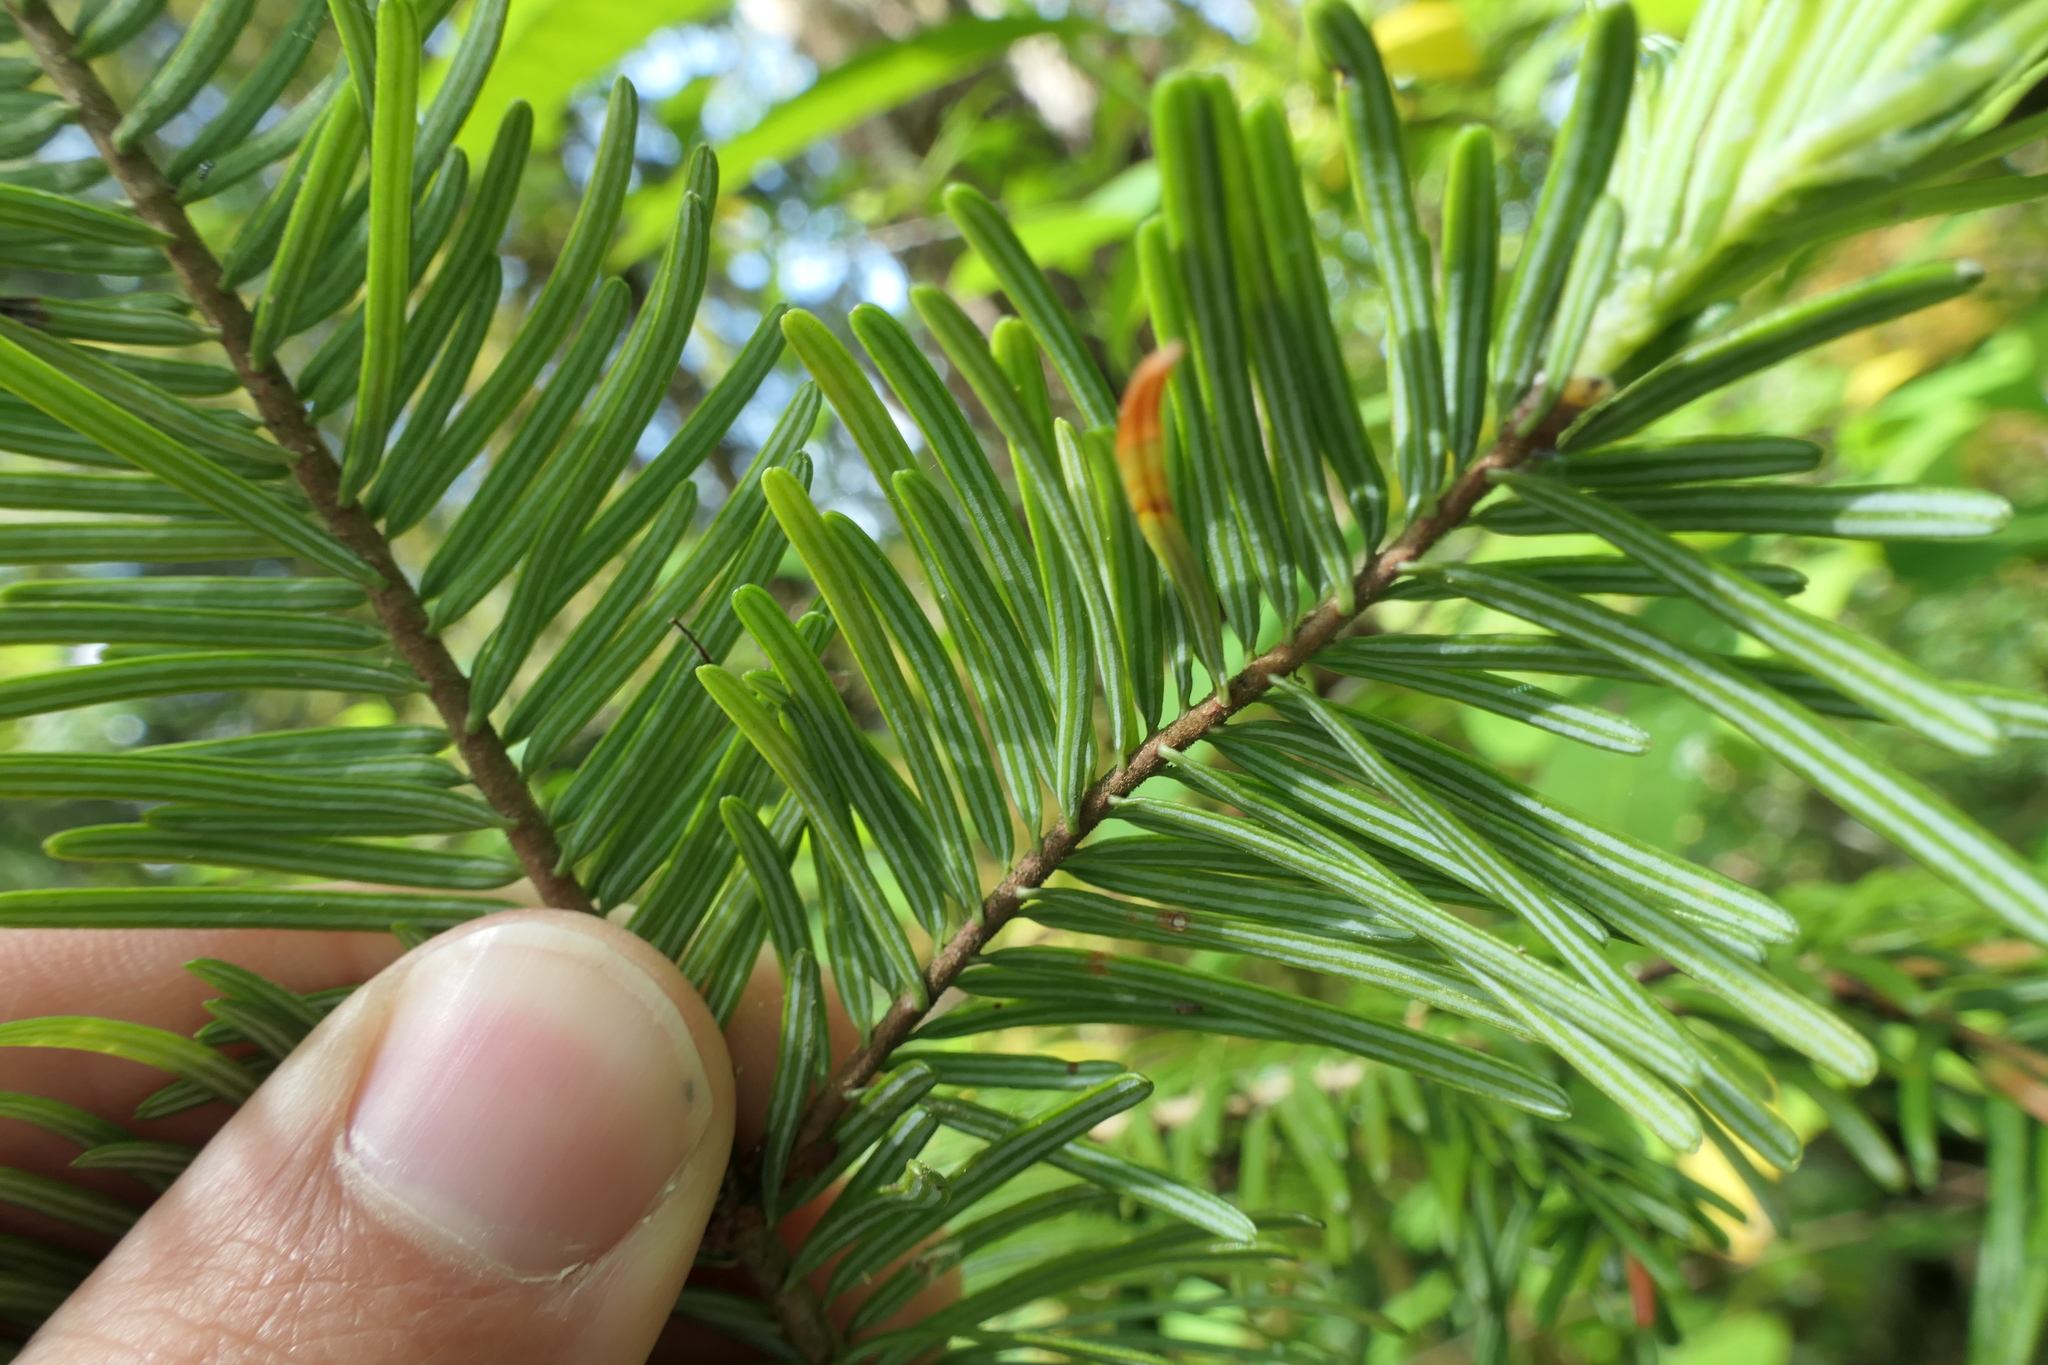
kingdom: Plantae
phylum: Tracheophyta
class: Pinopsida
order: Pinales
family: Pinaceae
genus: Abies
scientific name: Abies grandis
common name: Giant fir
